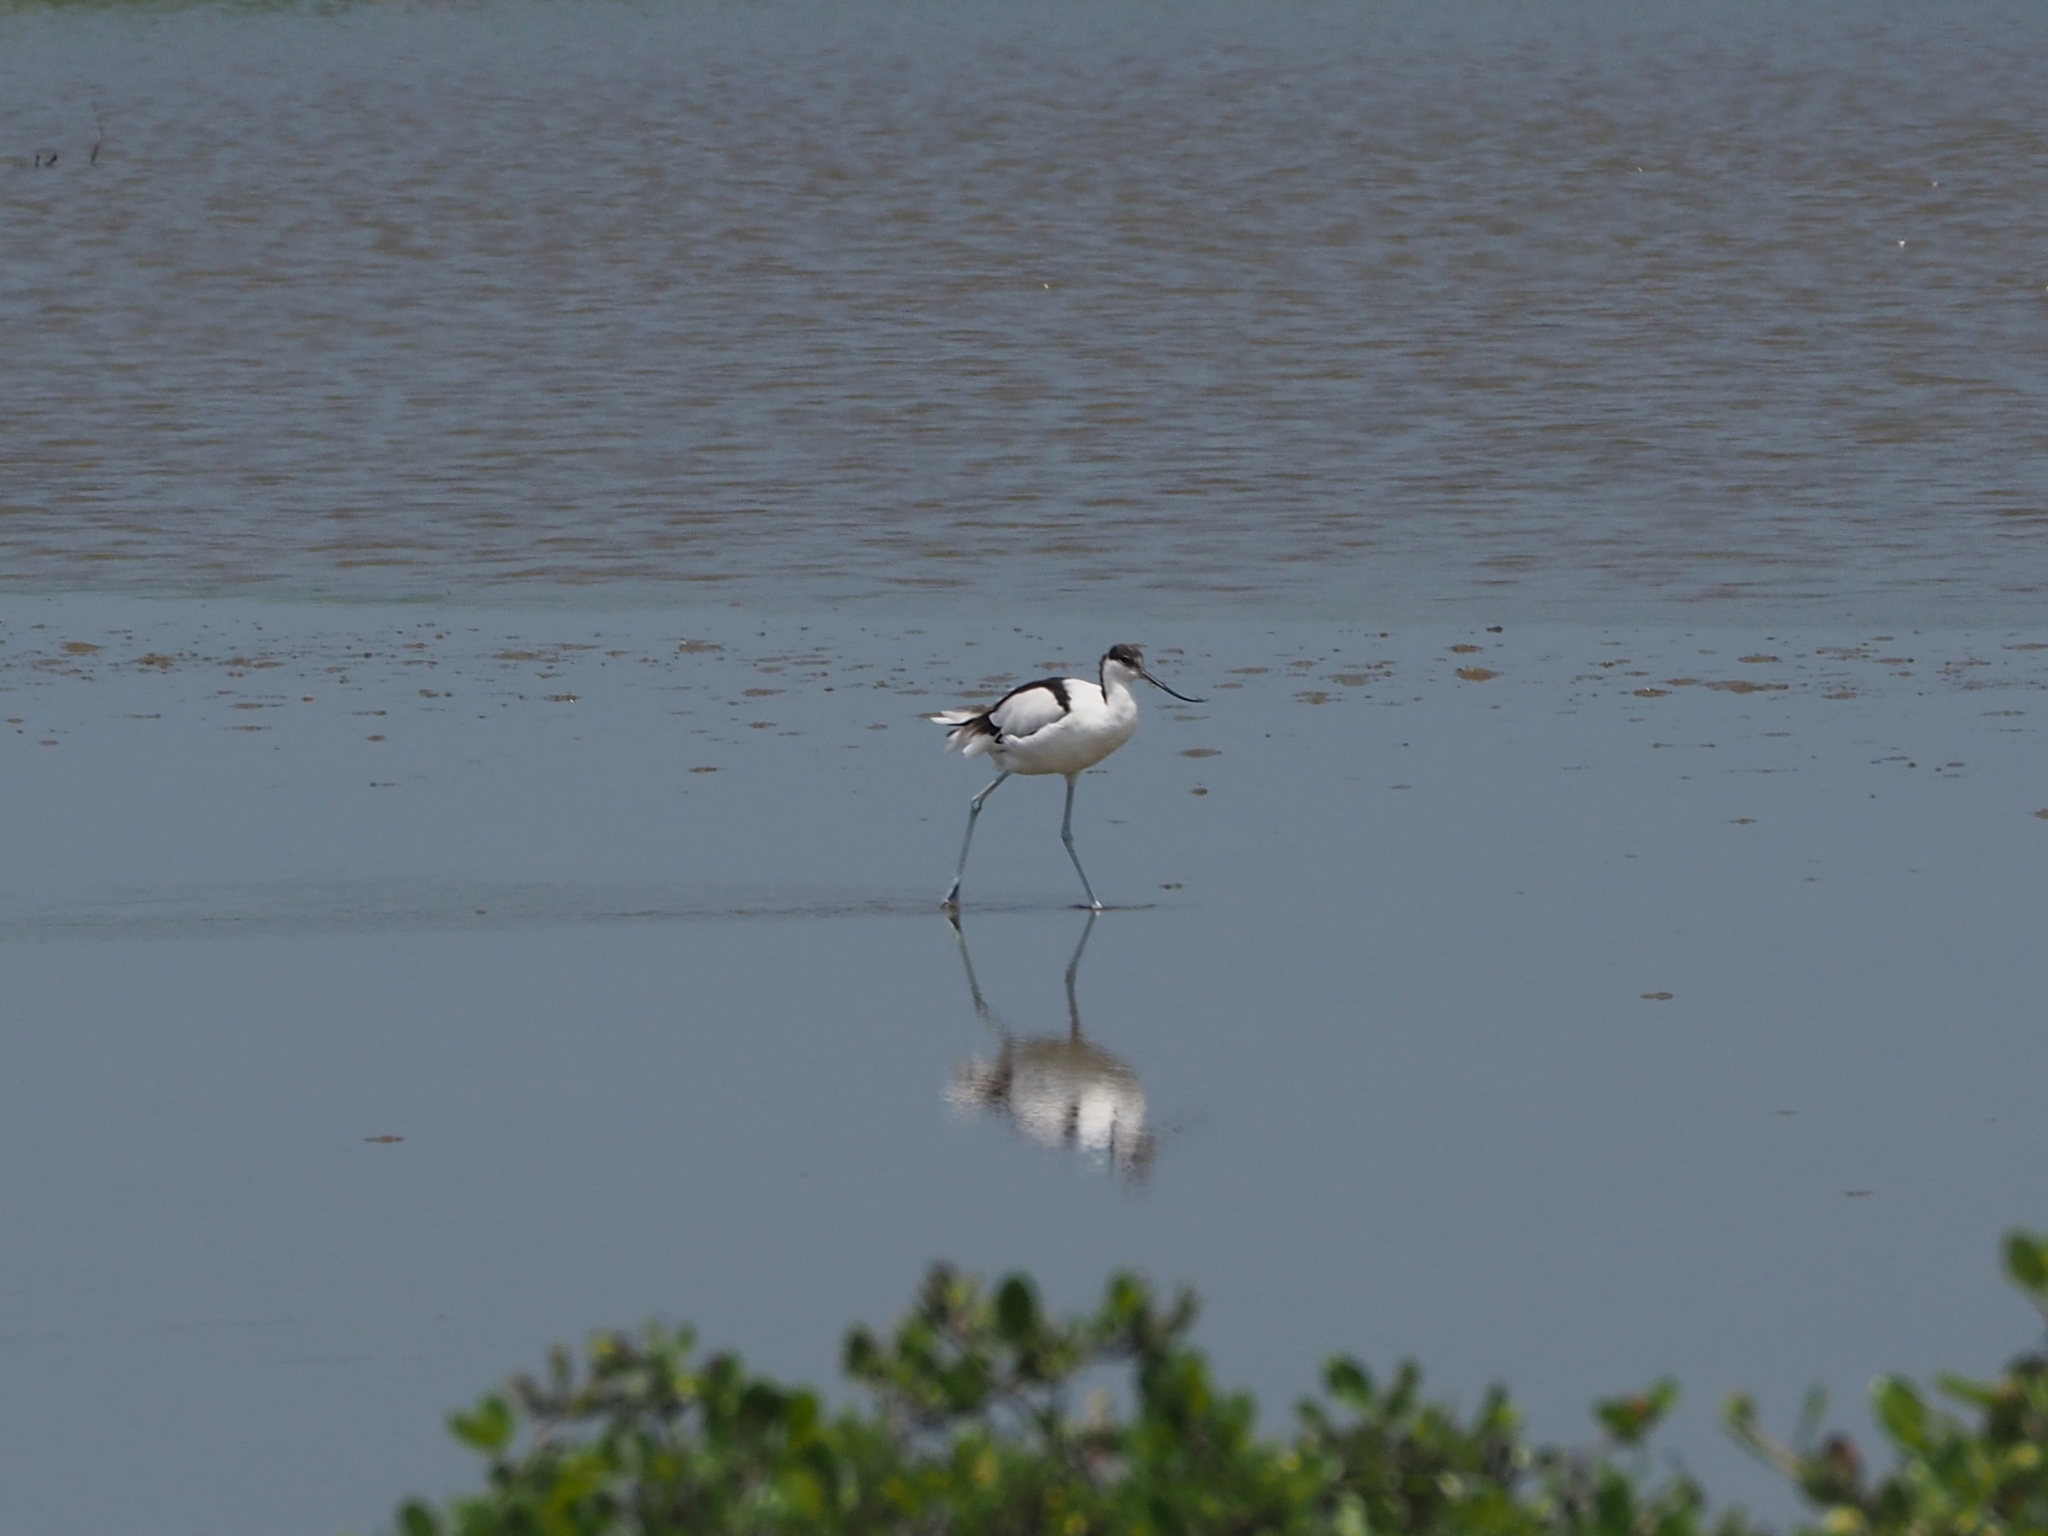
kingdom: Animalia
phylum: Chordata
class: Aves
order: Charadriiformes
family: Recurvirostridae
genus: Recurvirostra
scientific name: Recurvirostra avosetta
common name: Pied avocet
